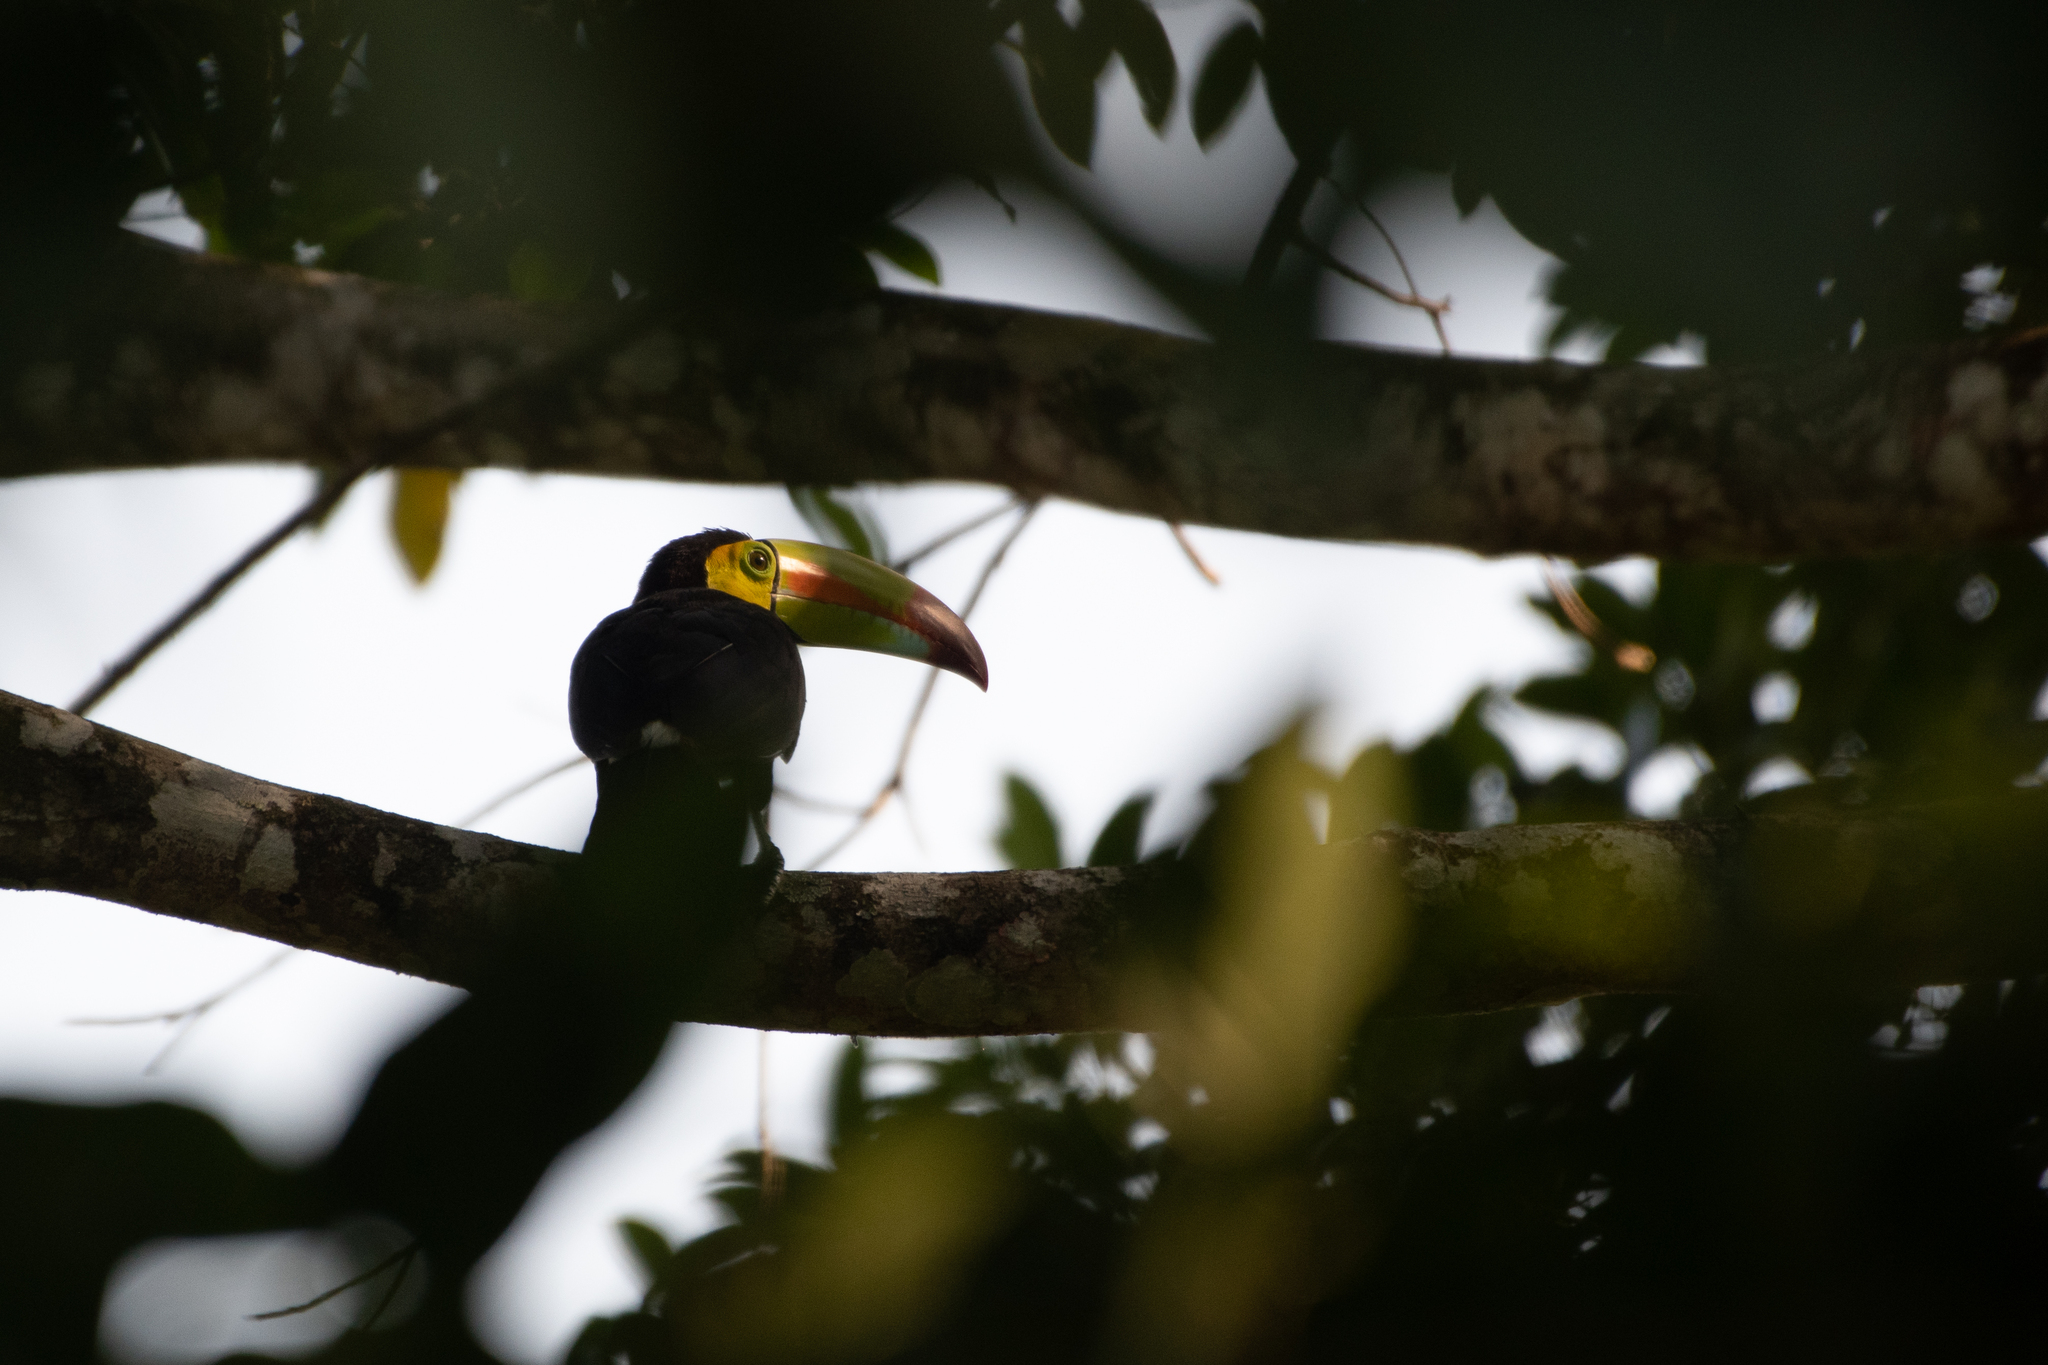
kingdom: Animalia
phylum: Chordata
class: Aves
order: Piciformes
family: Ramphastidae
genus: Ramphastos
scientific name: Ramphastos sulfuratus
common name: Keel-billed toucan
